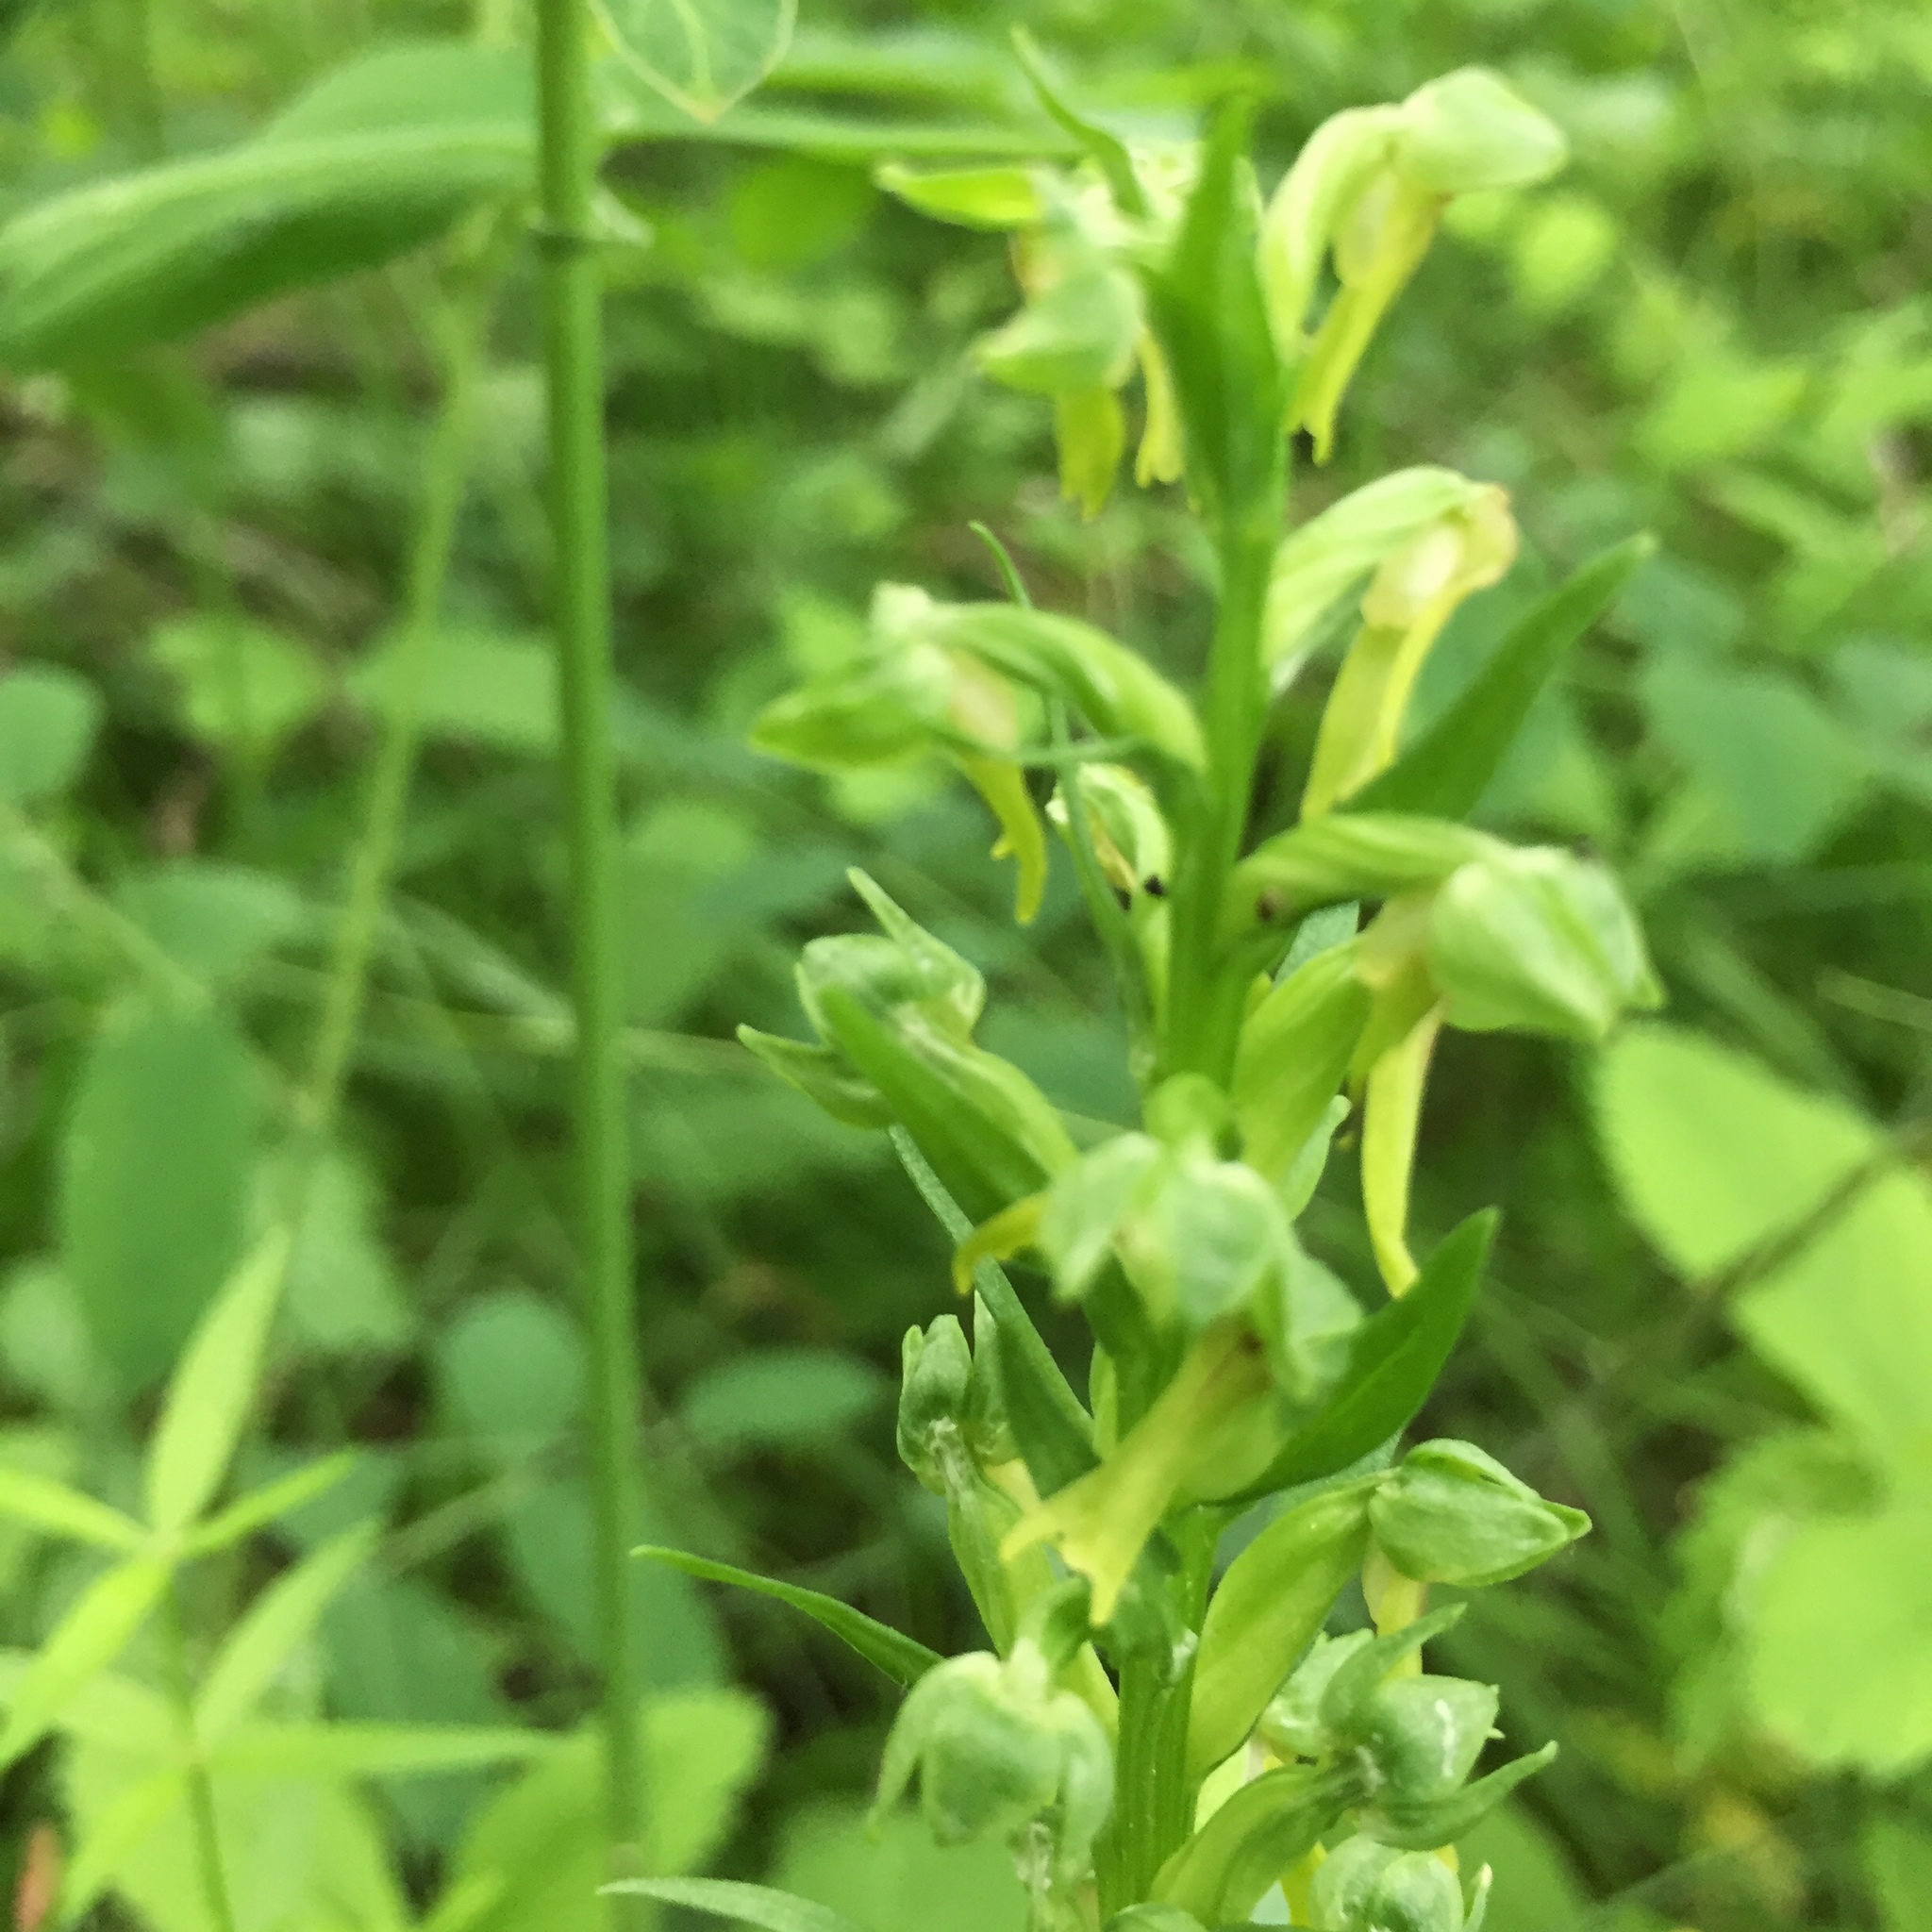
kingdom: Plantae
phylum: Tracheophyta
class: Liliopsida
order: Asparagales
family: Orchidaceae
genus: Dactylorhiza
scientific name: Dactylorhiza viridis
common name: Longbract frog orchid
